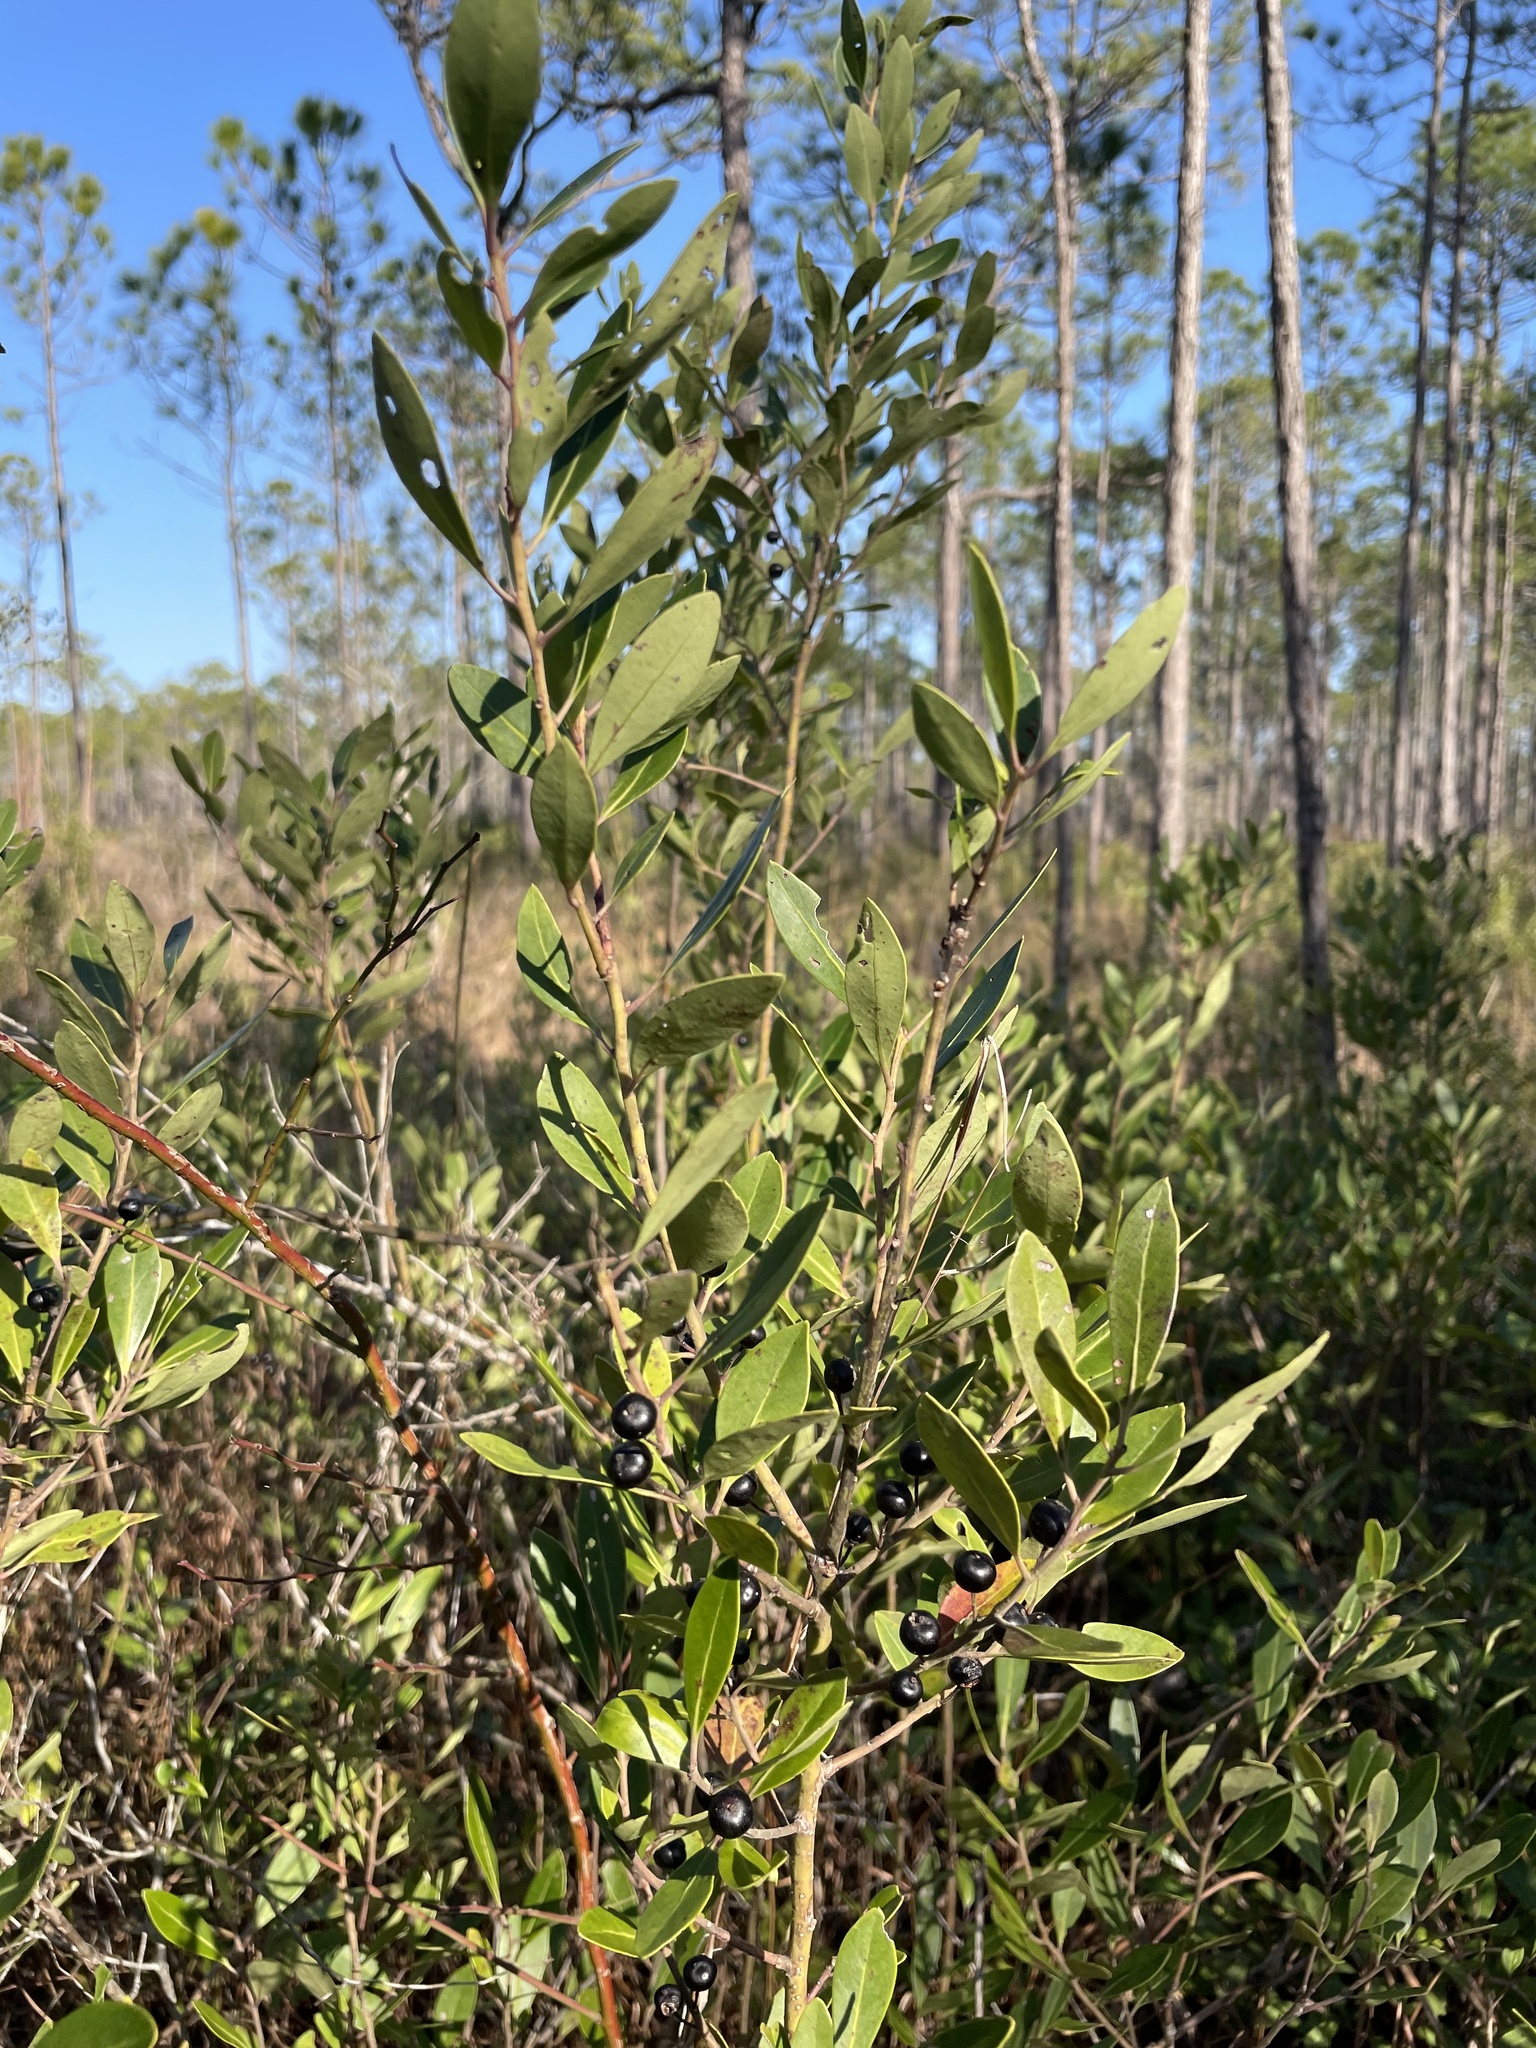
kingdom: Plantae
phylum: Tracheophyta
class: Magnoliopsida
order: Aquifoliales
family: Aquifoliaceae
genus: Ilex
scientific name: Ilex glabra
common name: Bitter gallberry
